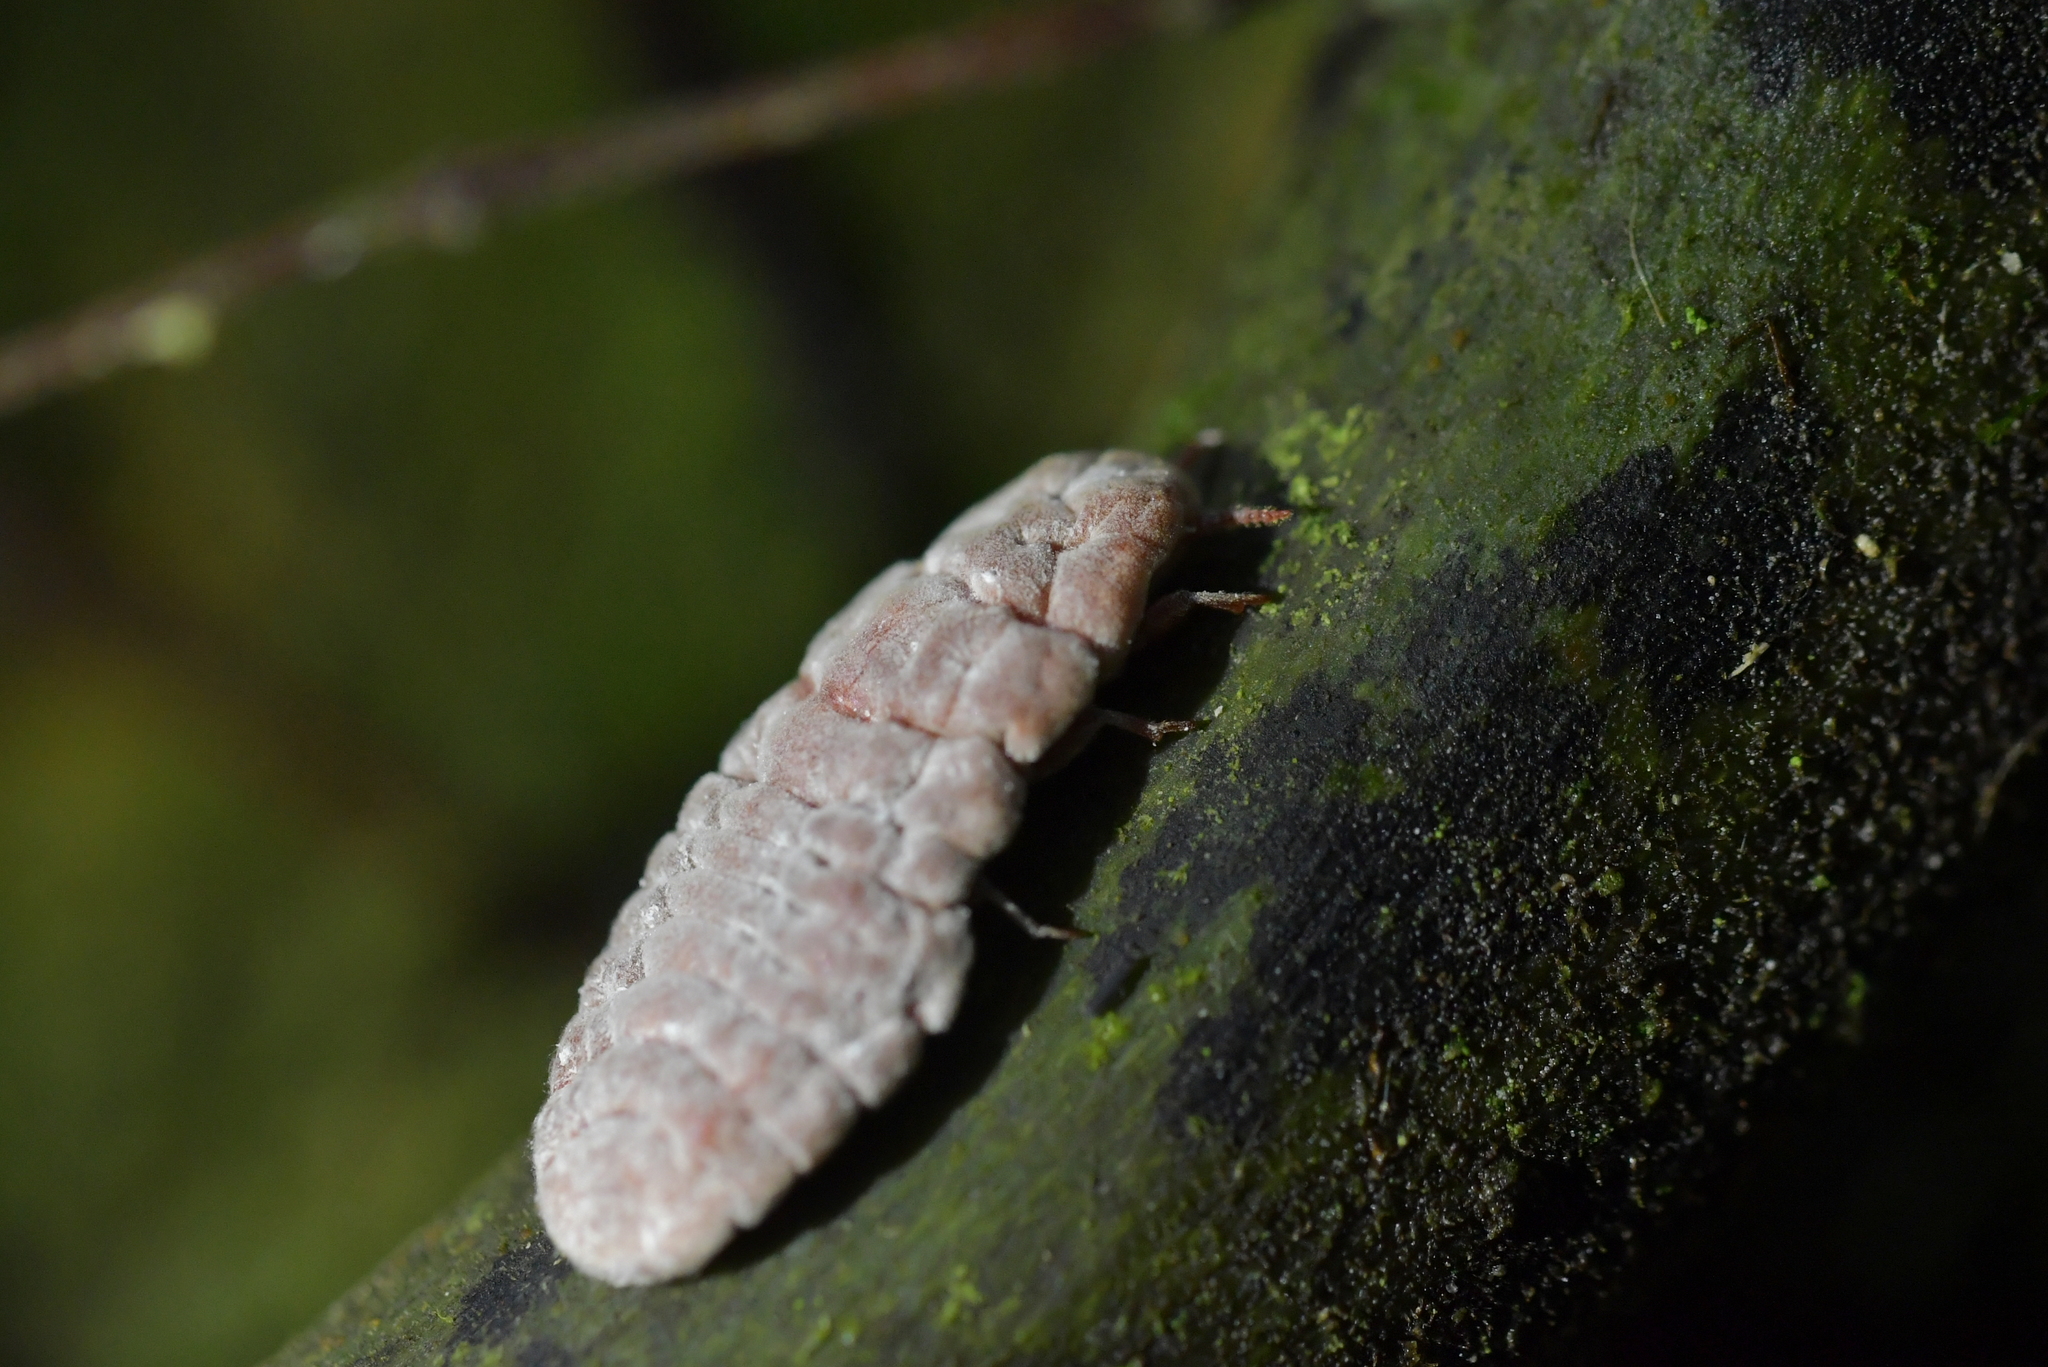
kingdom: Animalia
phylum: Arthropoda
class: Insecta
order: Hemiptera
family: Margarodidae
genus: Coelostomidia
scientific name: Coelostomidia zealandica
